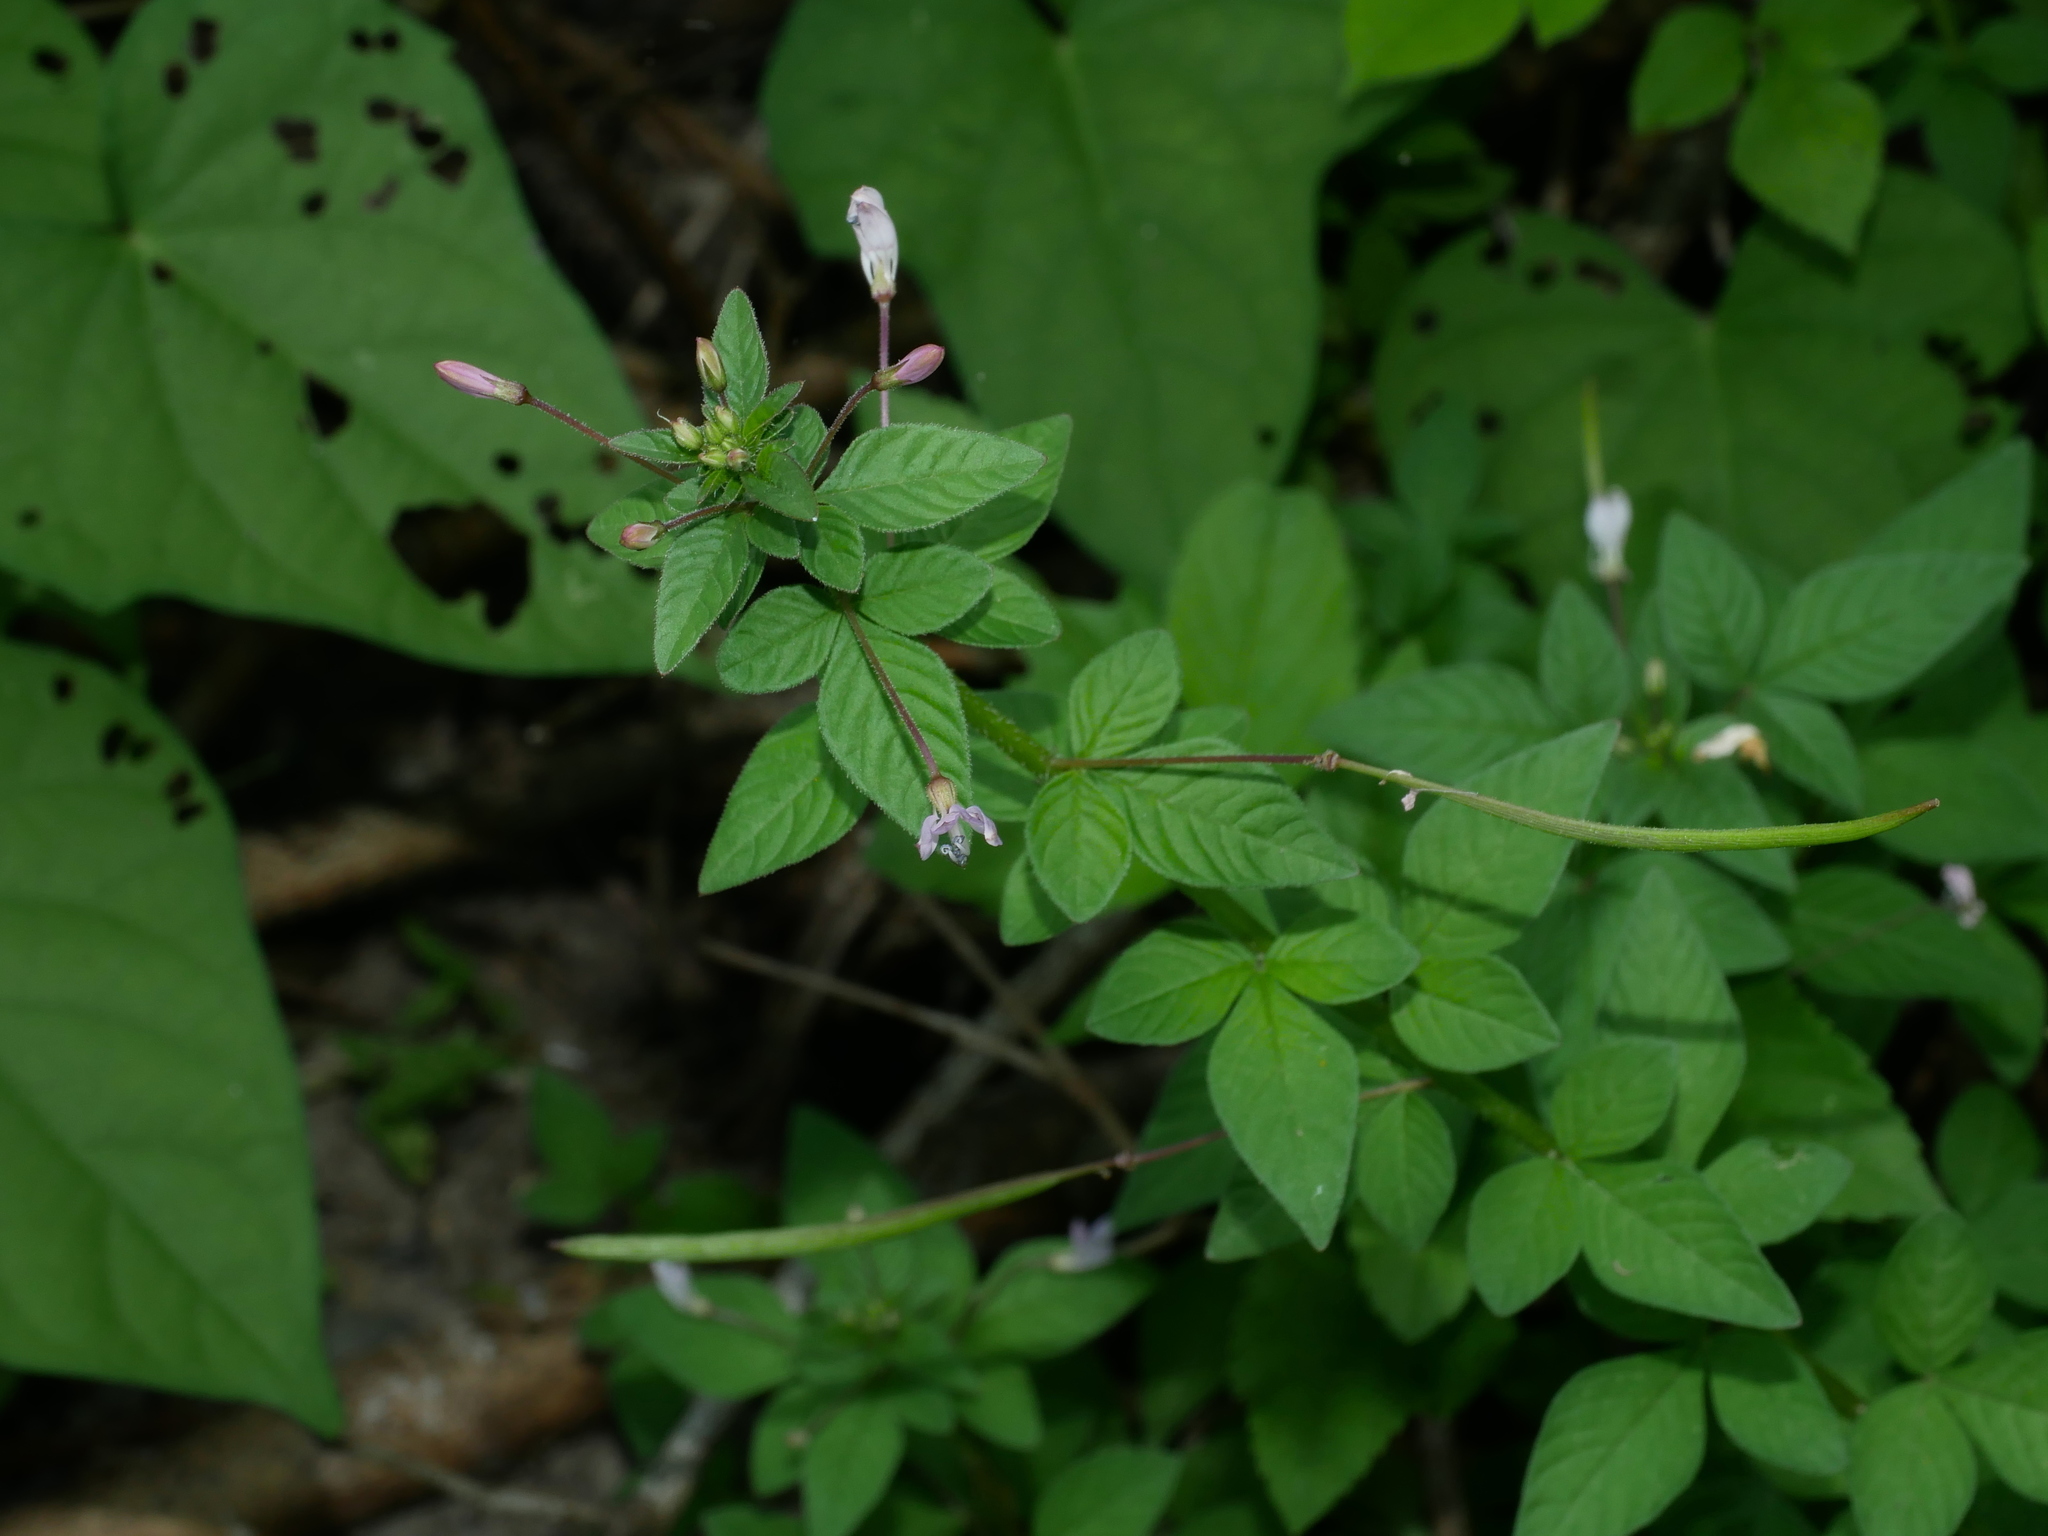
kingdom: Plantae
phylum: Tracheophyta
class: Magnoliopsida
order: Brassicales
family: Cleomaceae
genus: Sieruela
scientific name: Sieruela rutidosperma
